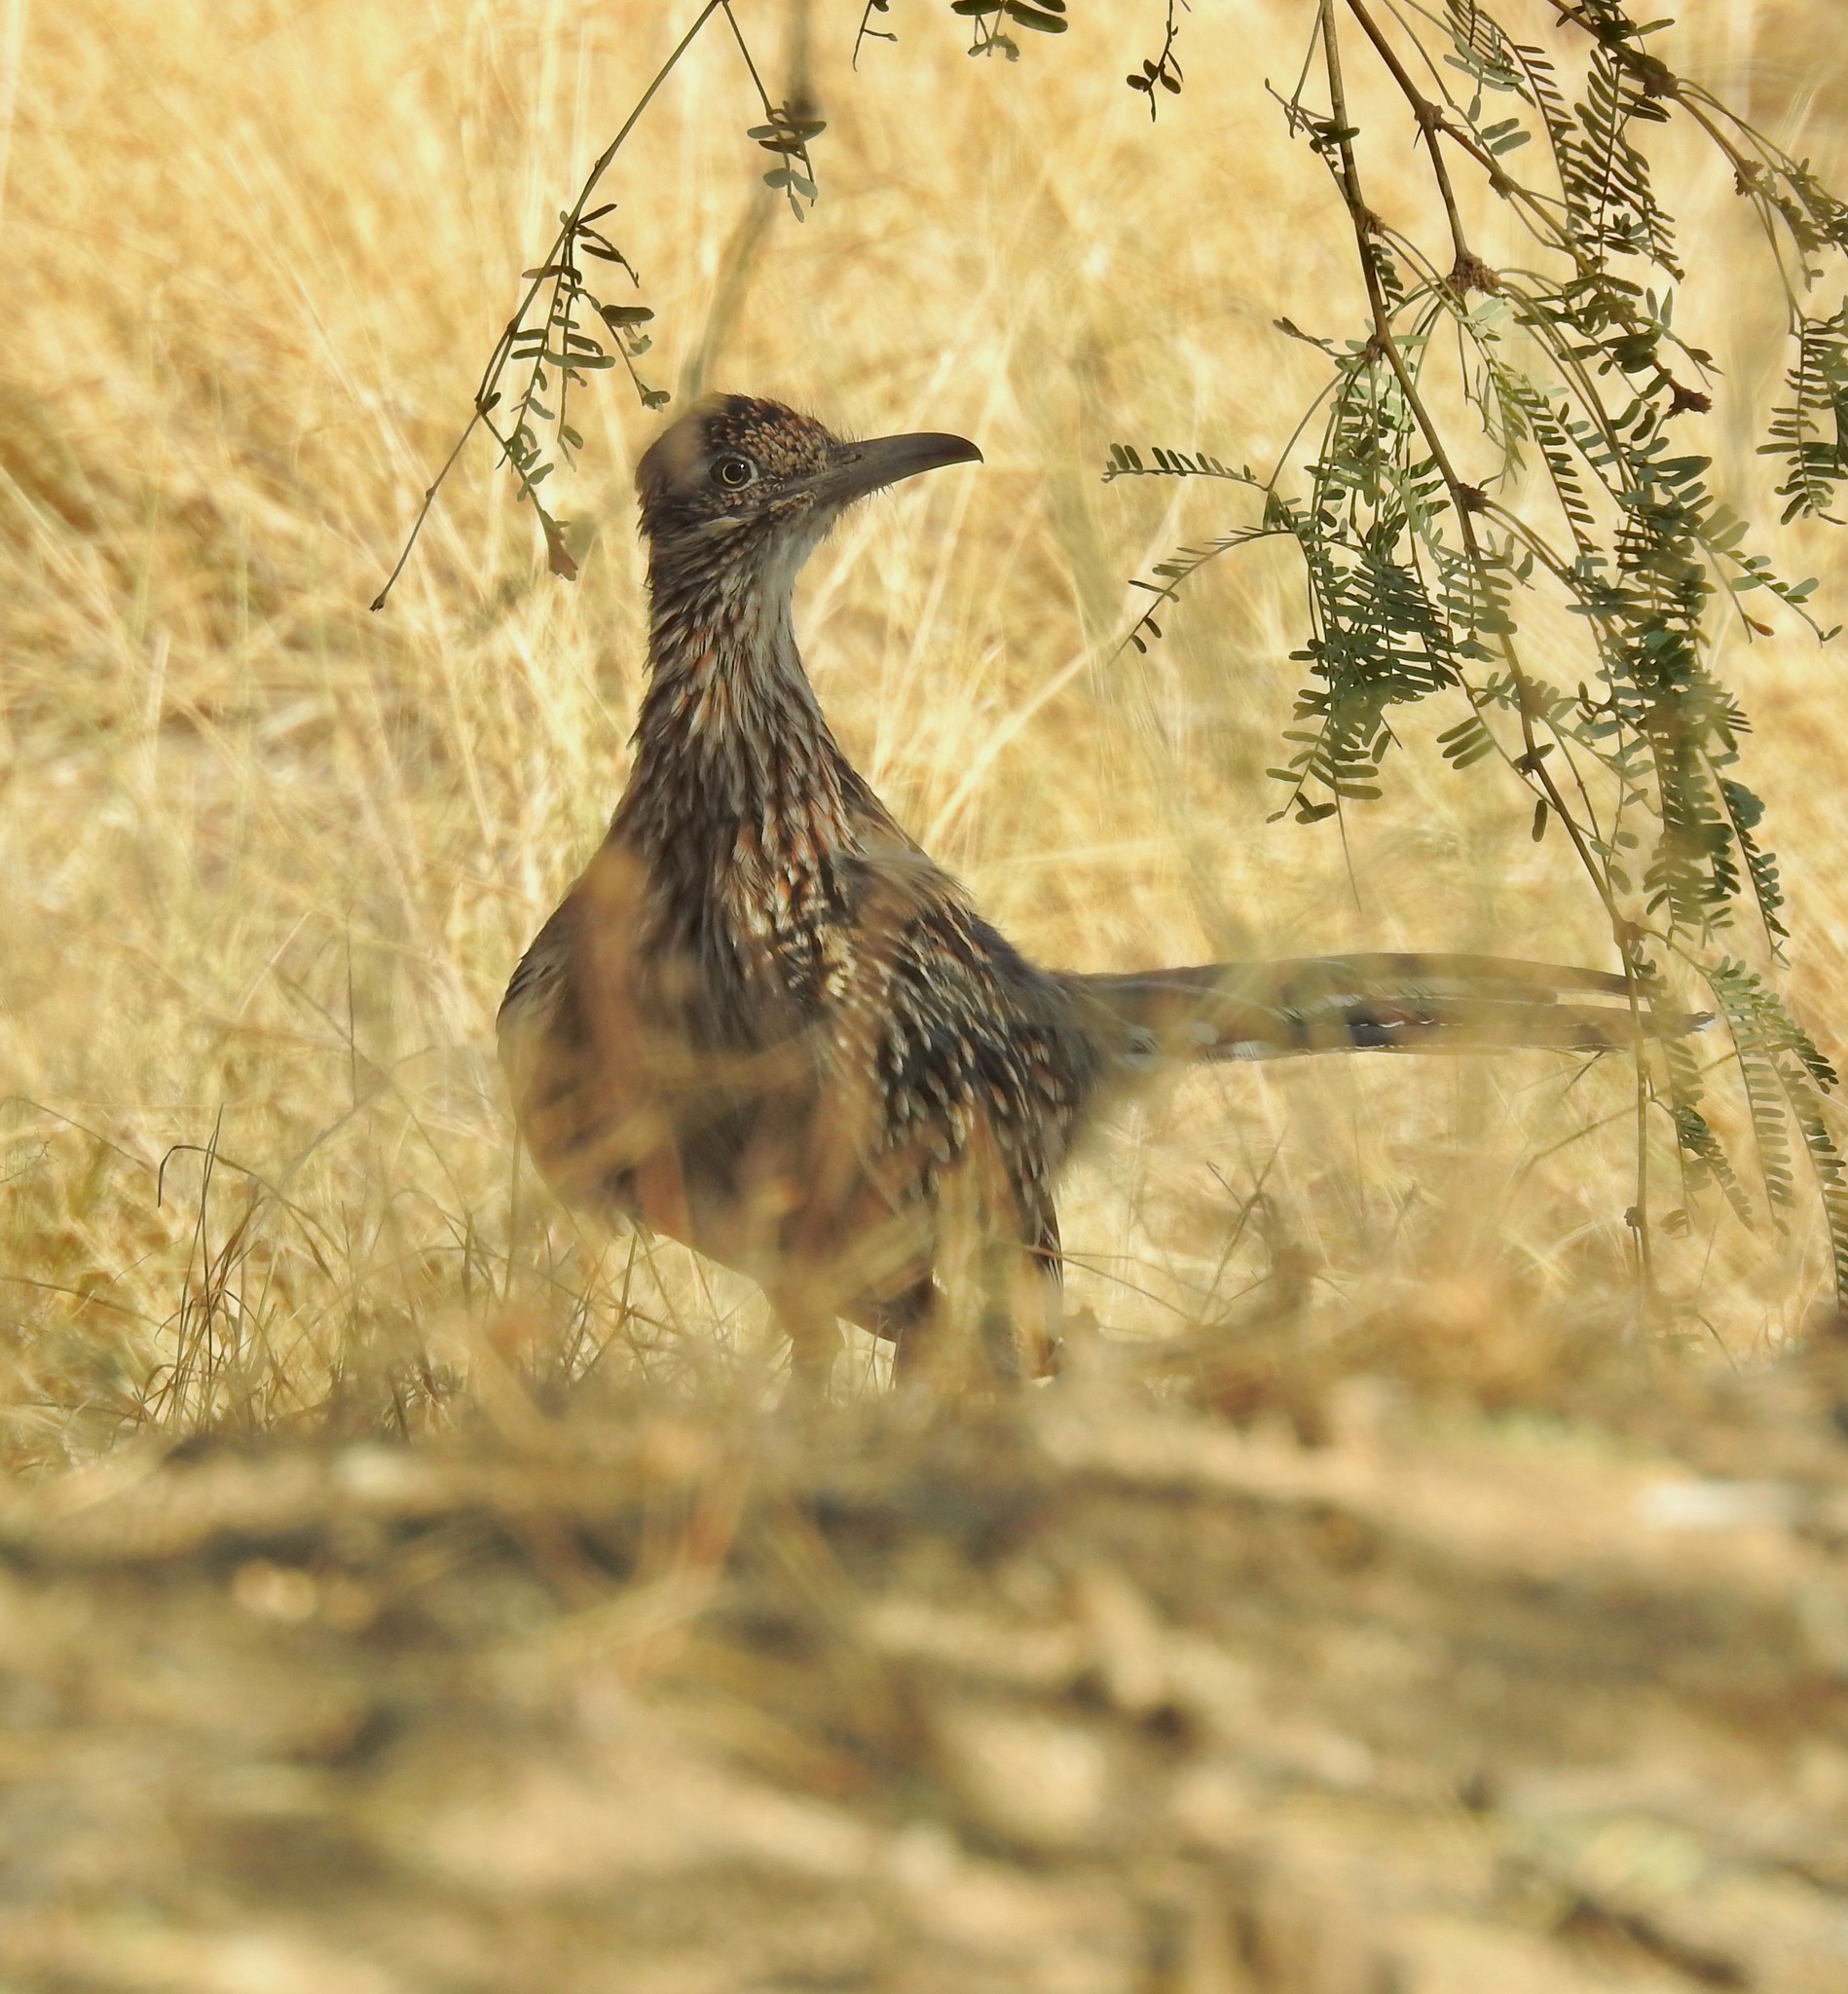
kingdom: Animalia
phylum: Chordata
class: Aves
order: Cuculiformes
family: Cuculidae
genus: Geococcyx
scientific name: Geococcyx californianus
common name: Greater roadrunner
